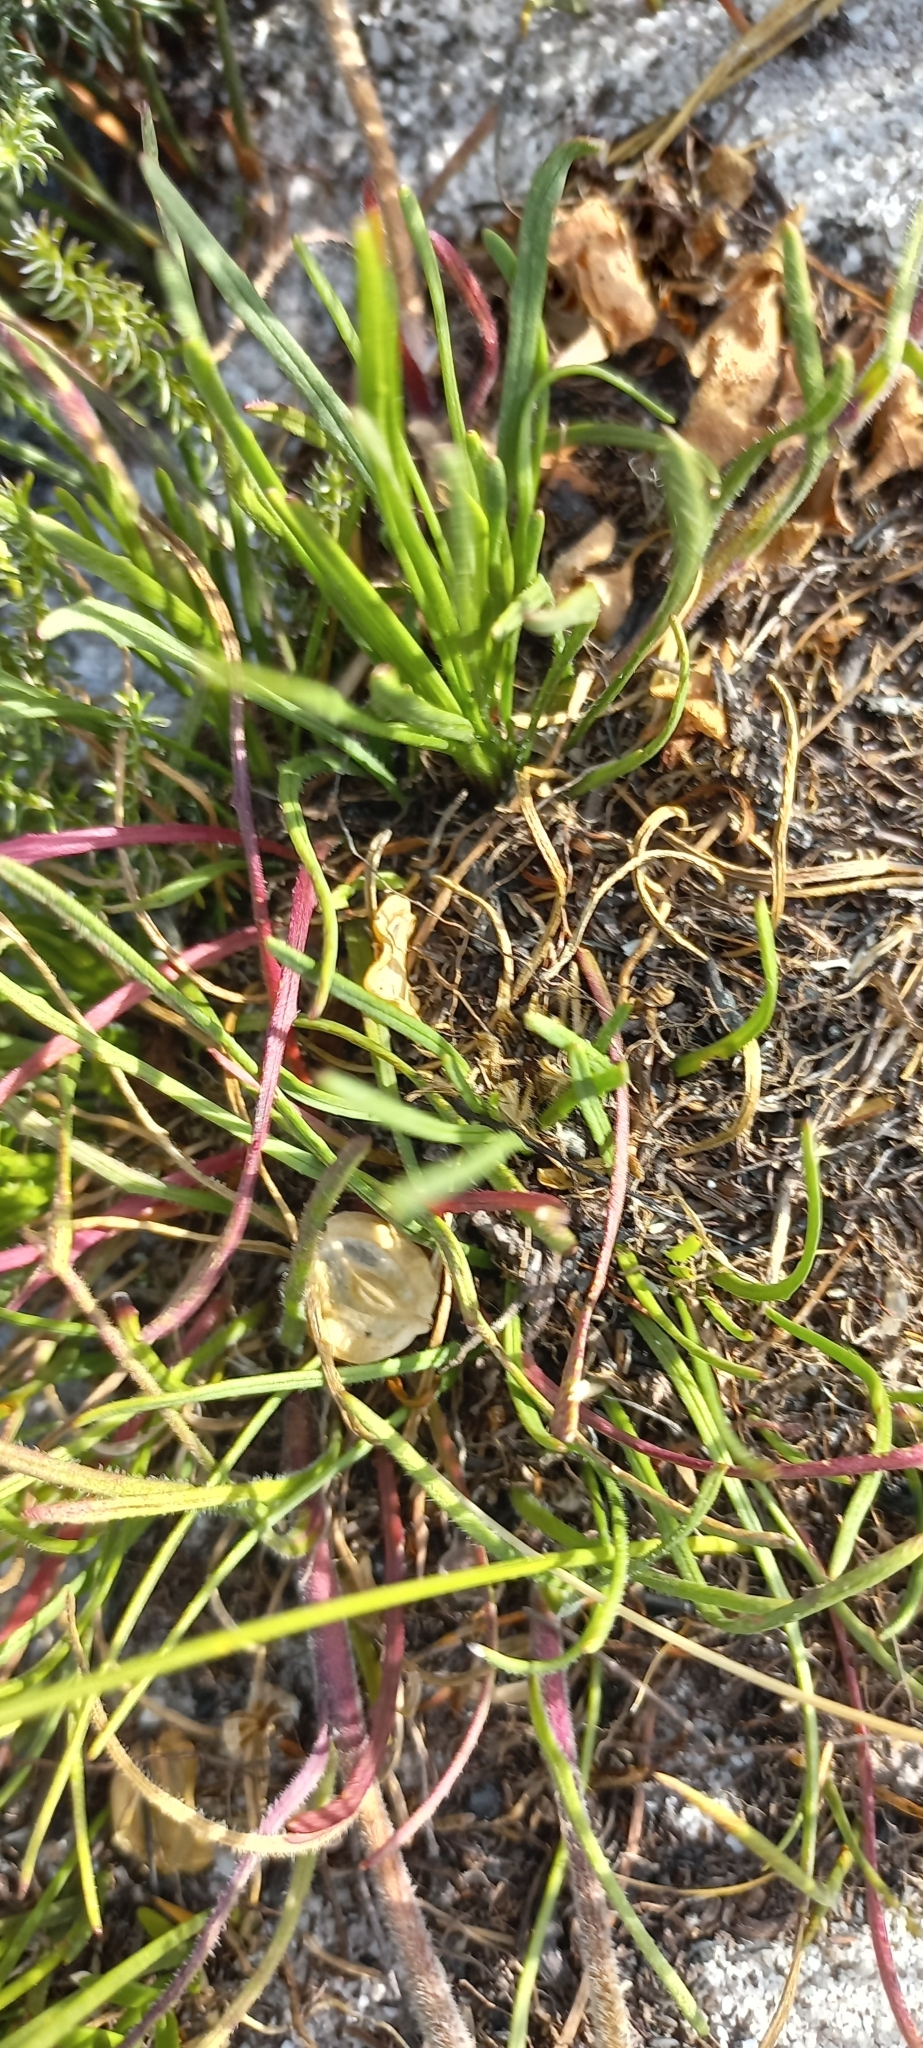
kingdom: Plantae
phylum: Tracheophyta
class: Magnoliopsida
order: Asterales
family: Asteraceae
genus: Dimorphotheca
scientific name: Dimorphotheca nudicaulis
